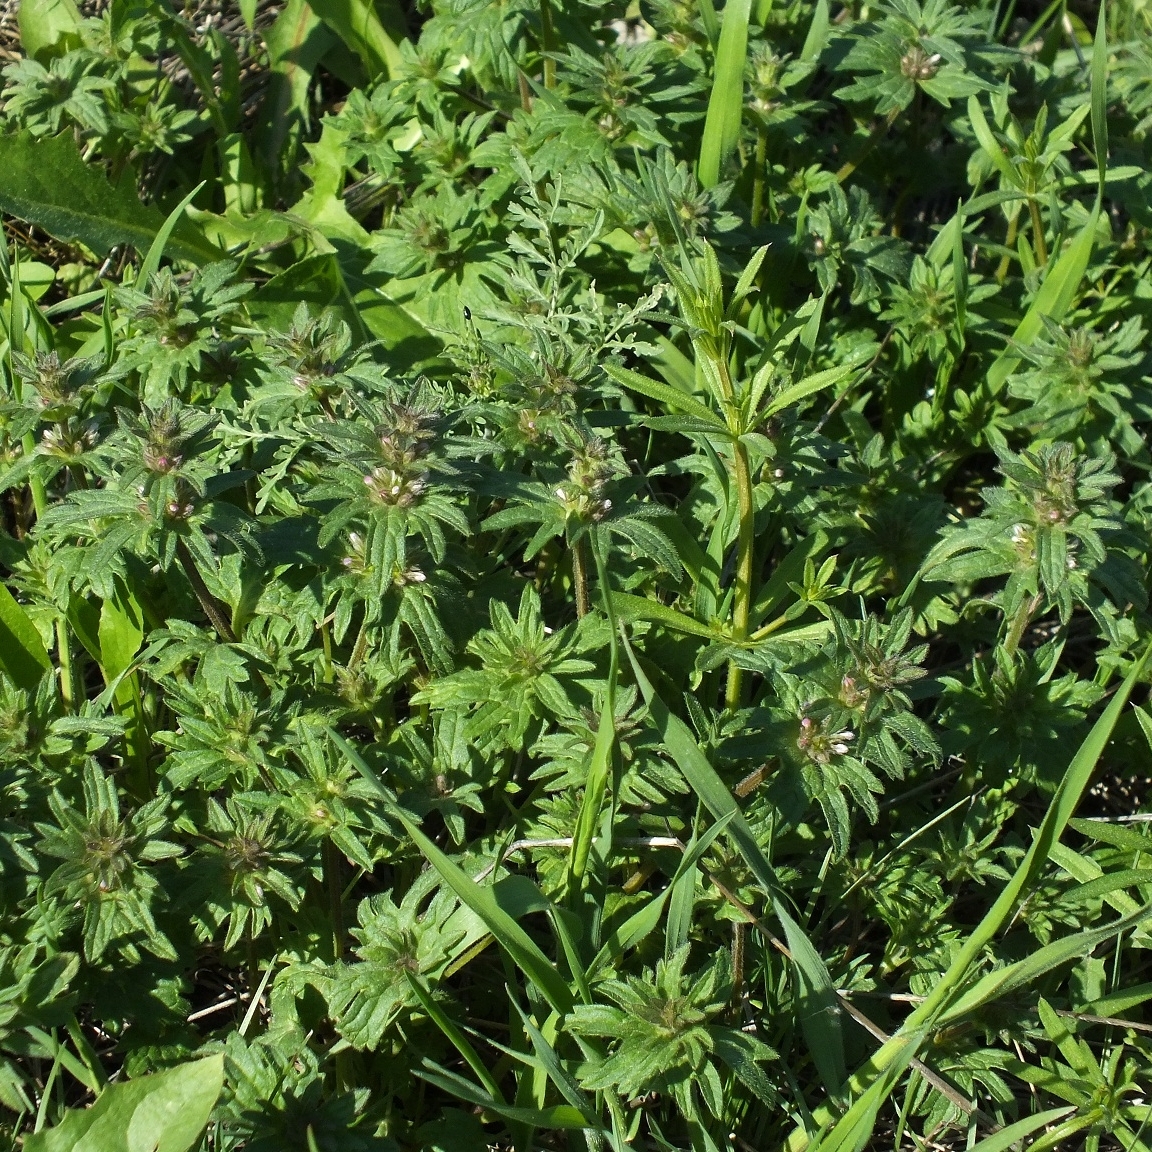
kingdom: Plantae
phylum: Tracheophyta
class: Magnoliopsida
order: Lamiales
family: Lamiaceae
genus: Lamium
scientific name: Lamium amplexicaule
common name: Henbit dead-nettle
